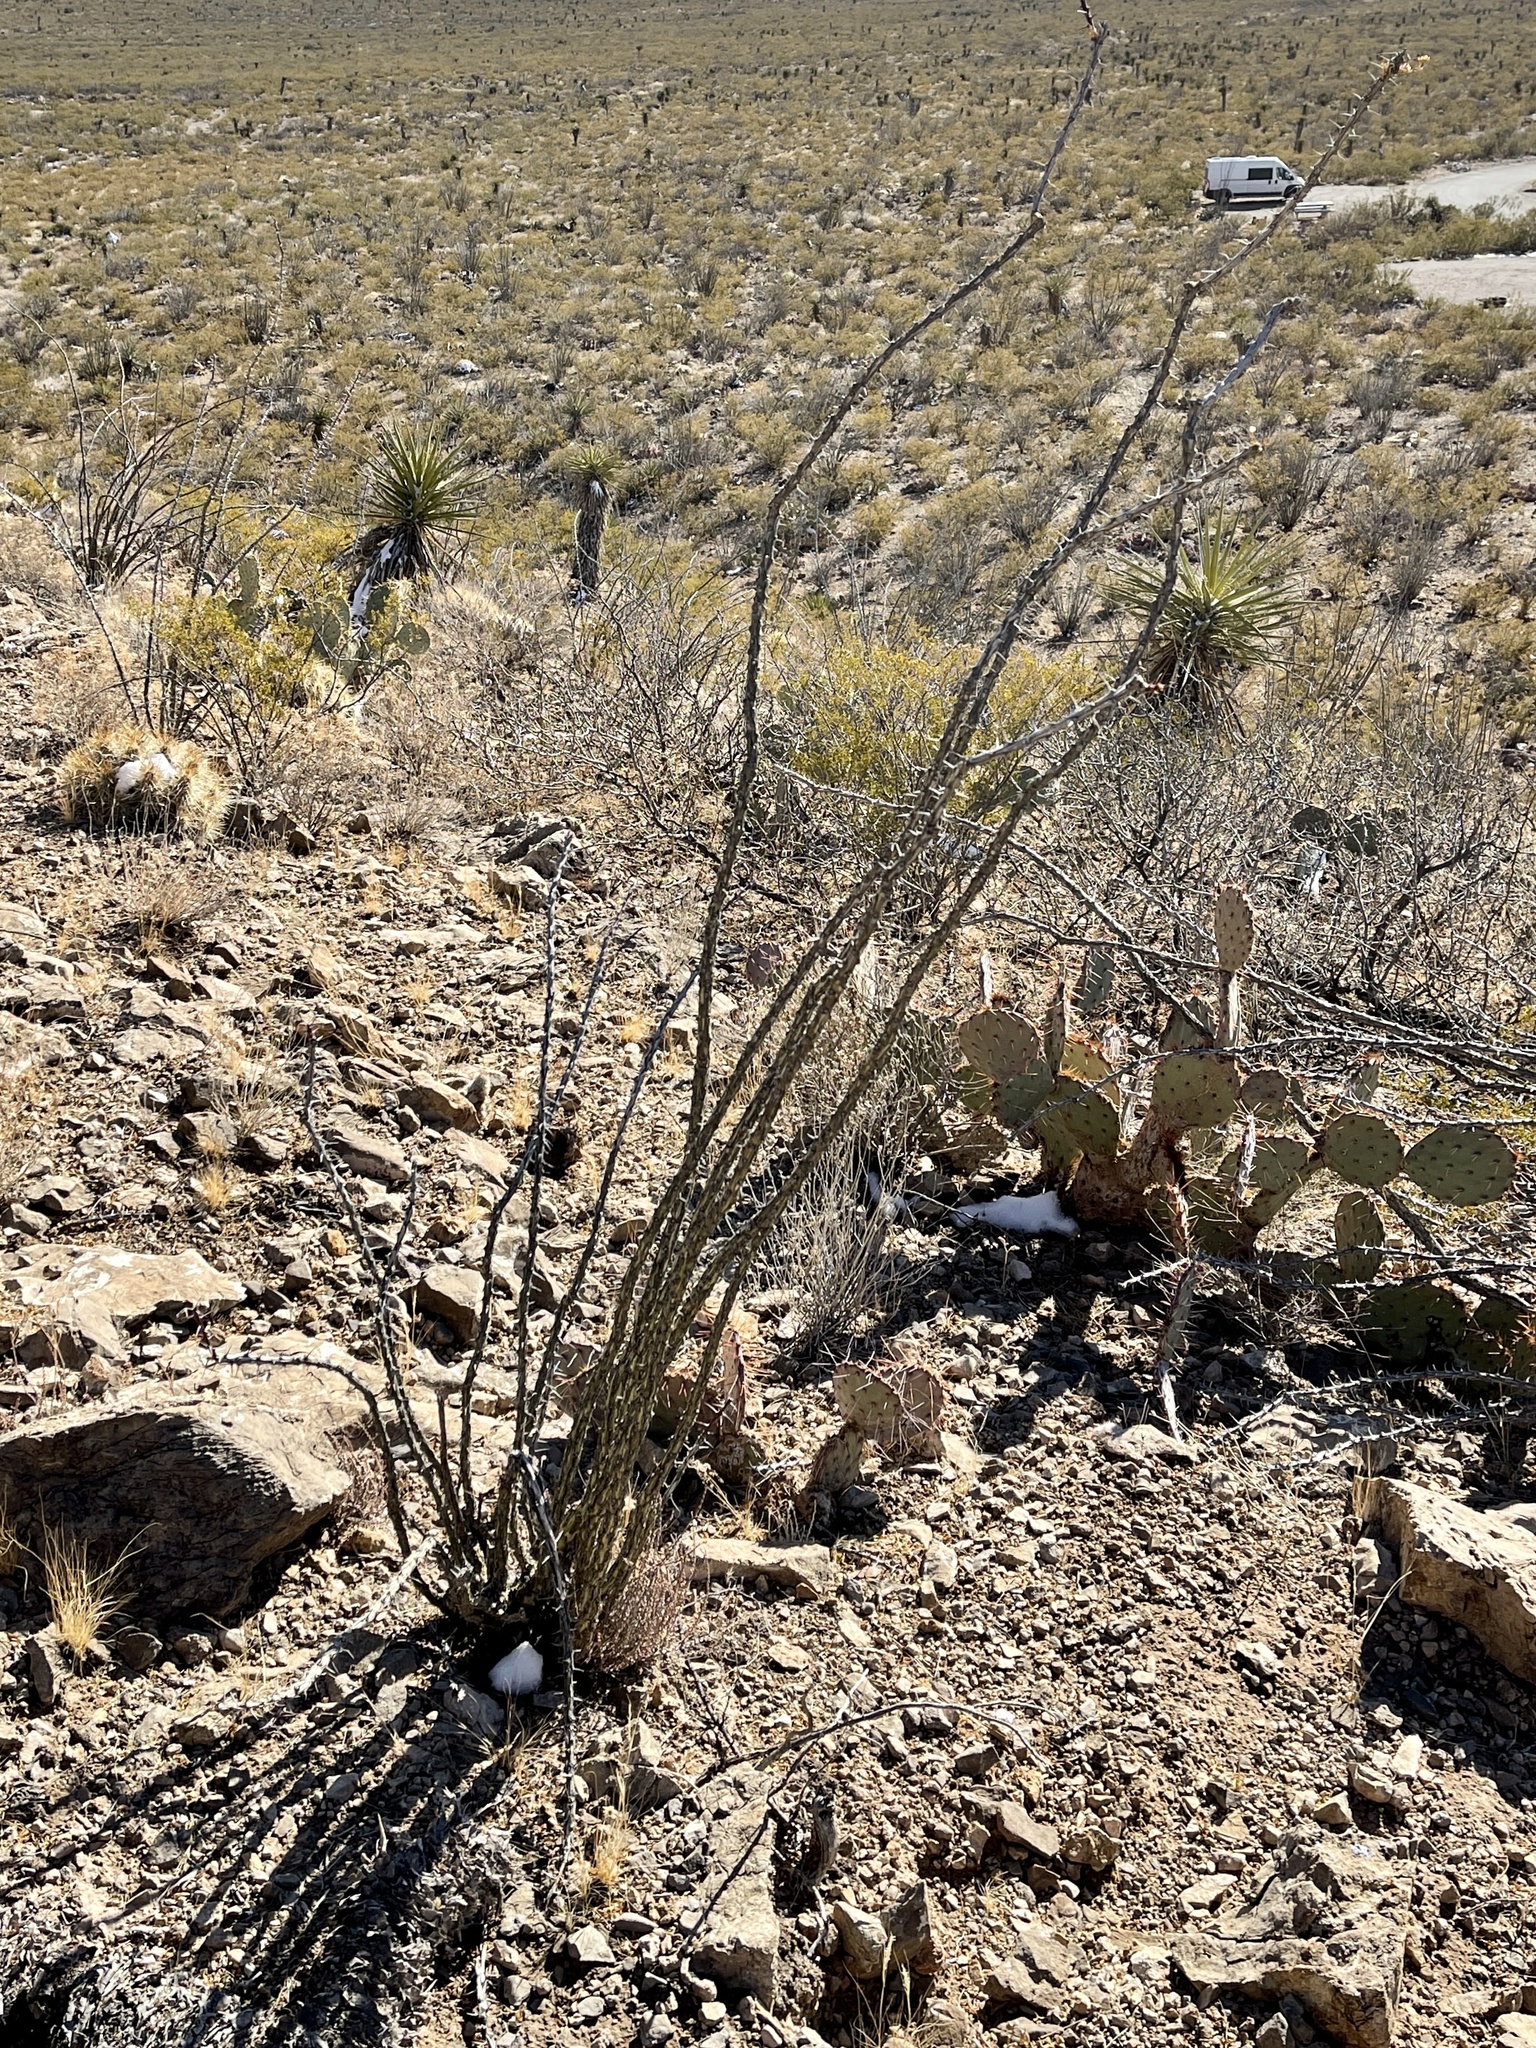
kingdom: Plantae
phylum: Tracheophyta
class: Magnoliopsida
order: Ericales
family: Fouquieriaceae
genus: Fouquieria
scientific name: Fouquieria splendens
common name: Vine-cactus
